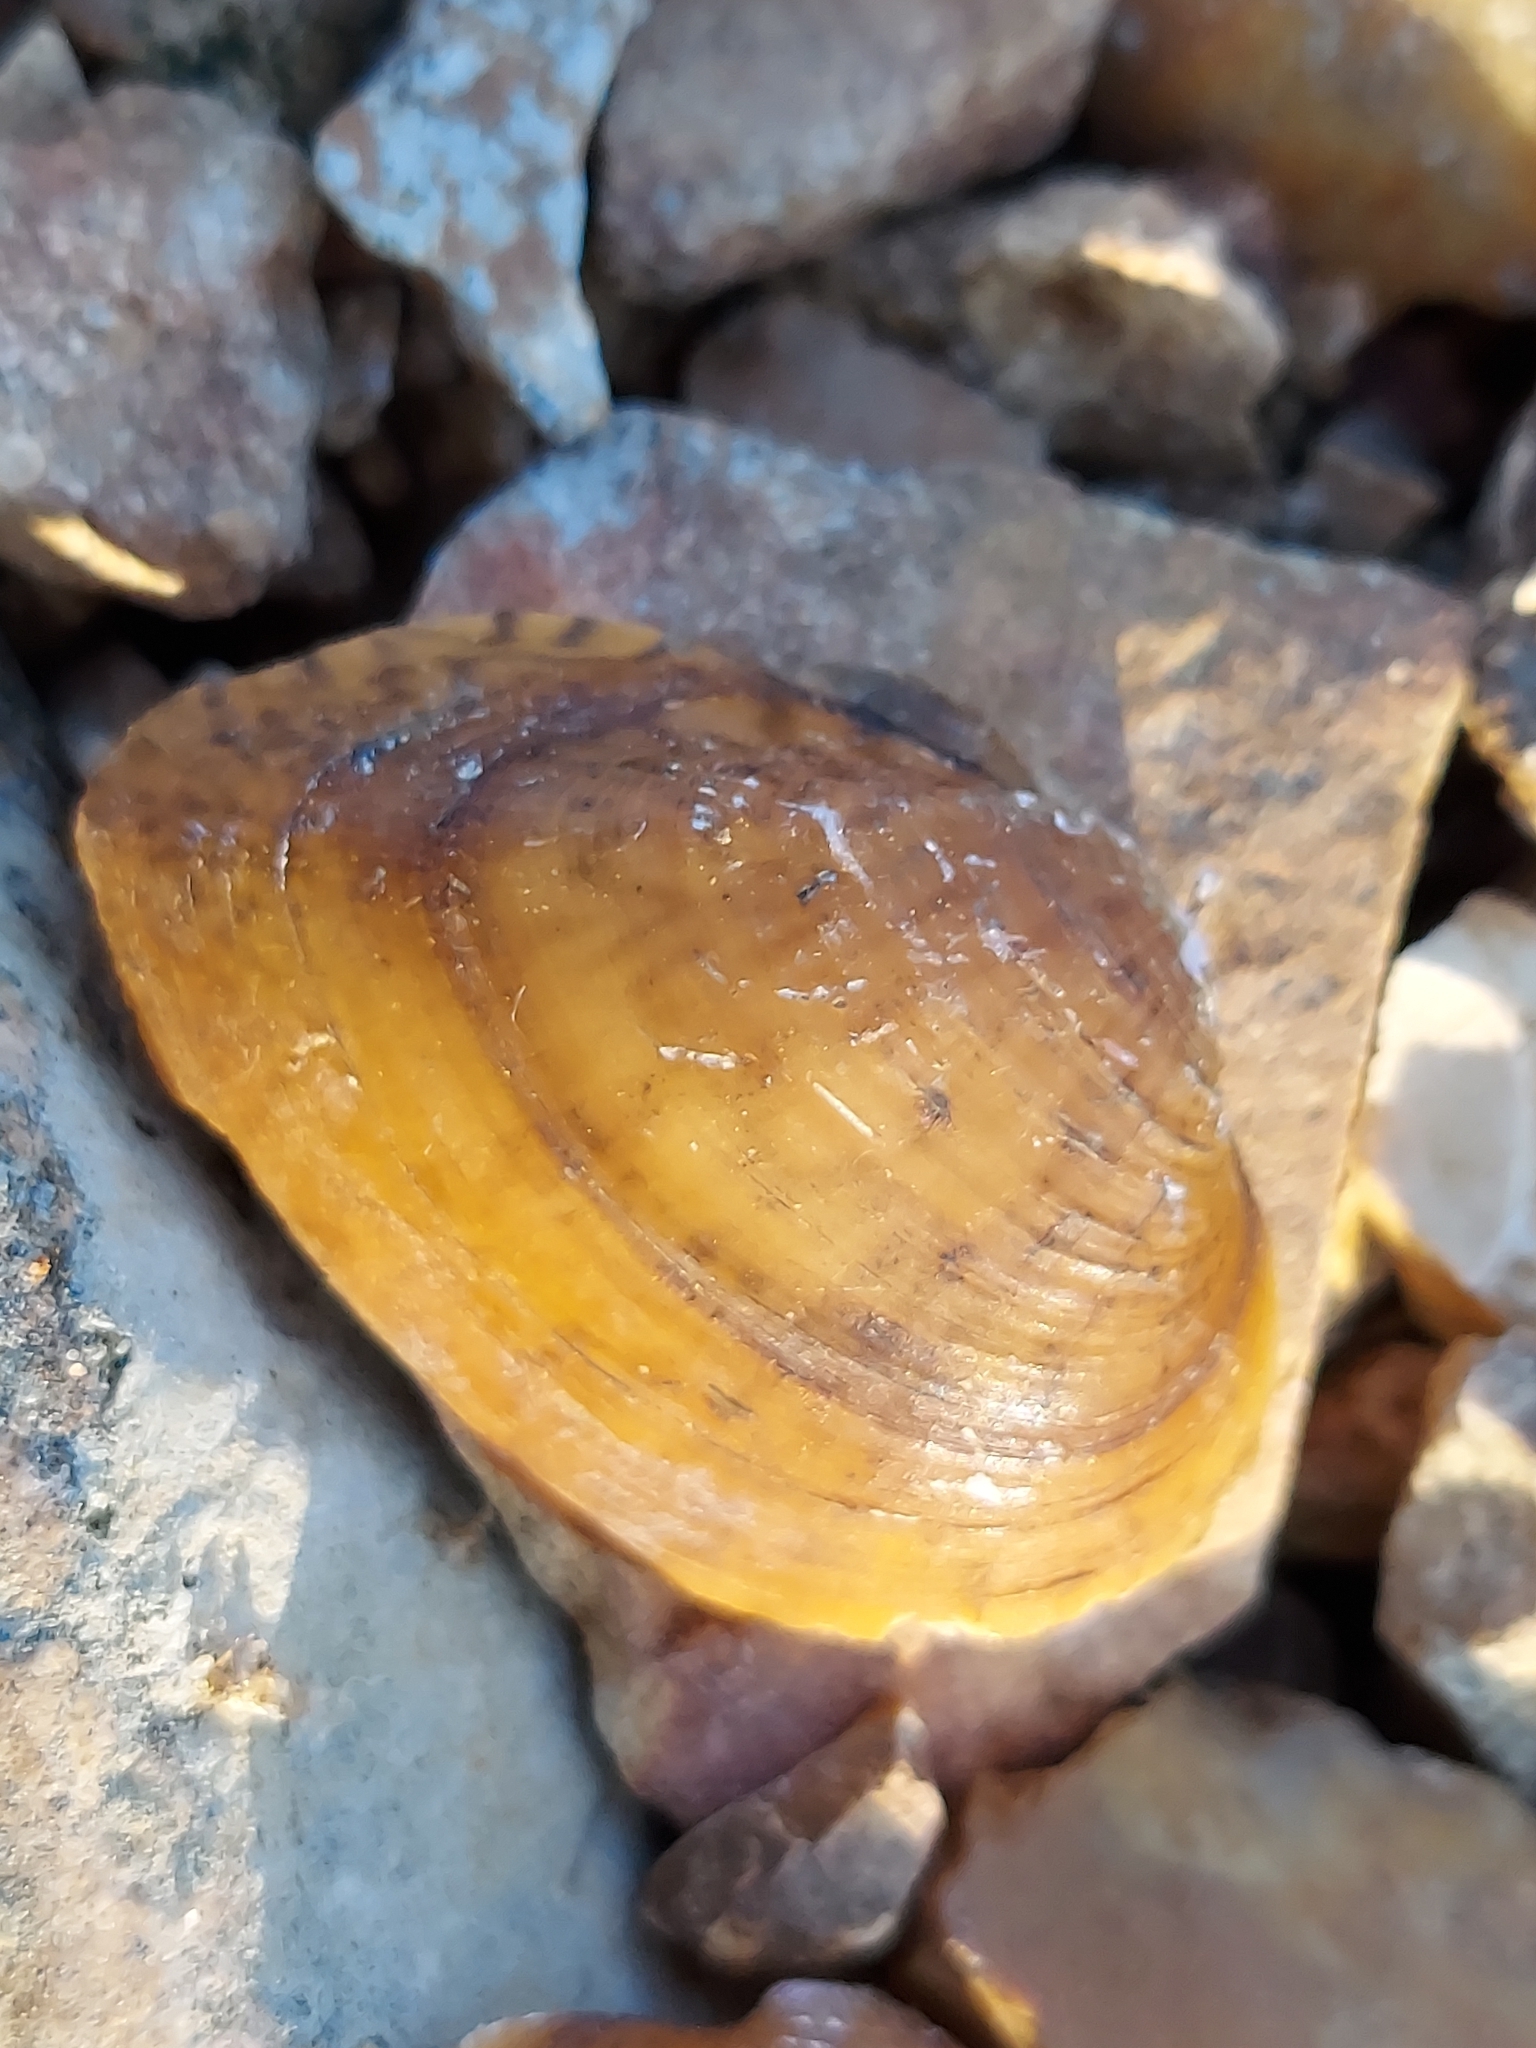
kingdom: Animalia
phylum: Mollusca
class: Bivalvia
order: Unionida
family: Unionidae
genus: Truncilla
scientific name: Truncilla donaciformis
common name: Fawnsfoot
